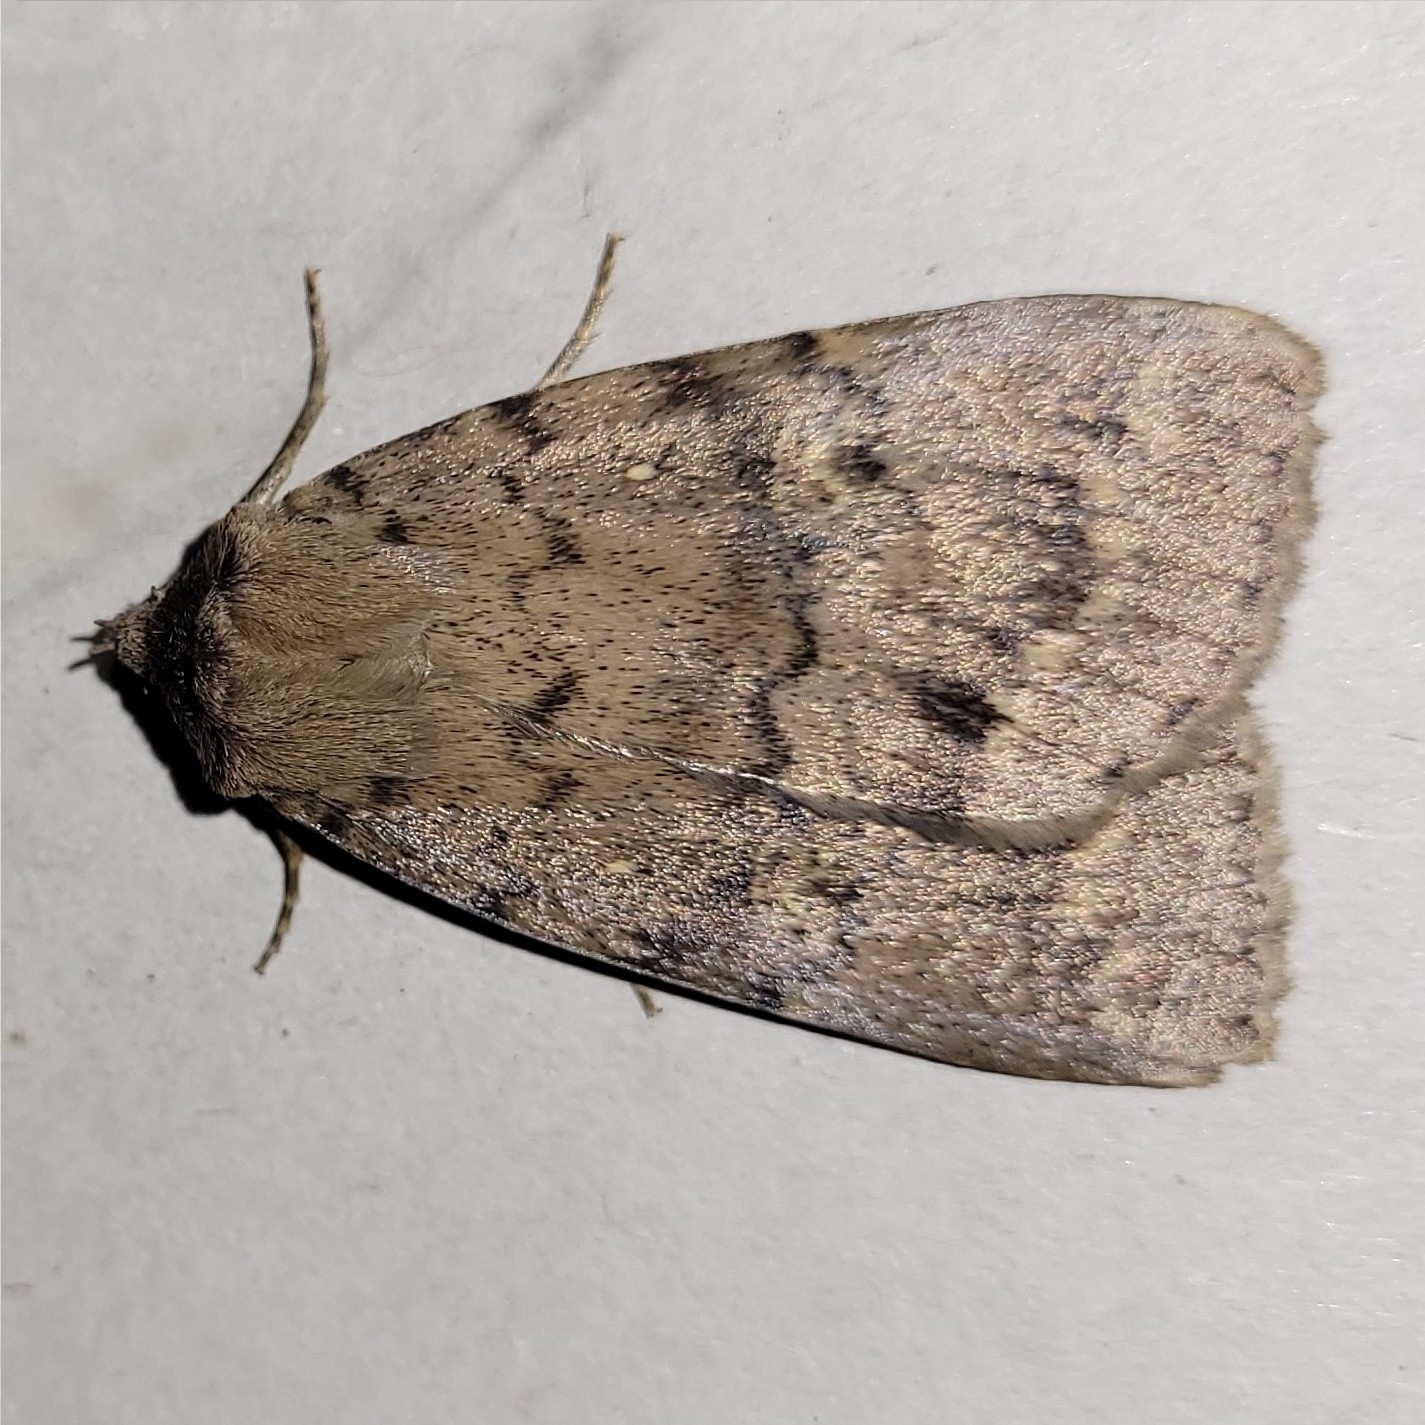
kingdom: Animalia
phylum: Arthropoda
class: Insecta
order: Lepidoptera
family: Erebidae
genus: Apopestes
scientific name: Apopestes spectrum
